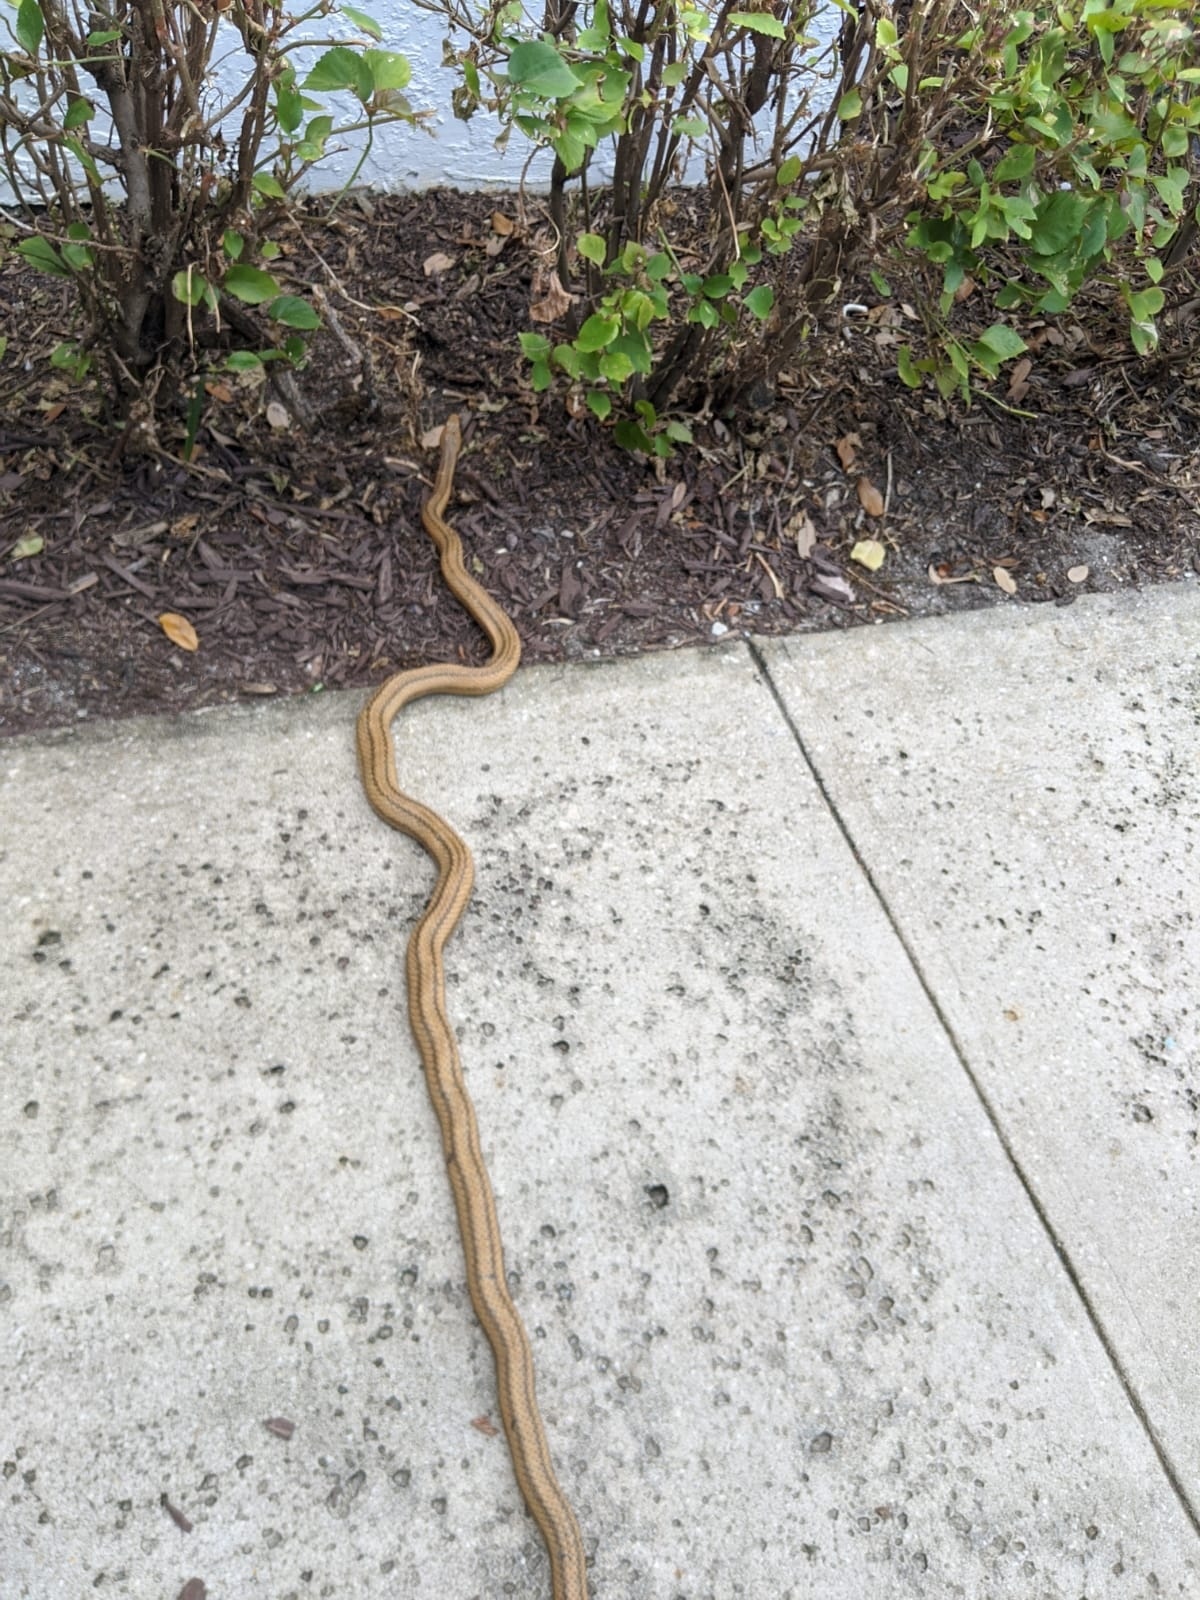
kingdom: Animalia
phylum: Chordata
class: Squamata
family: Colubridae
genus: Pantherophis
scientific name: Pantherophis alleghaniensis
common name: Eastern rat snake
